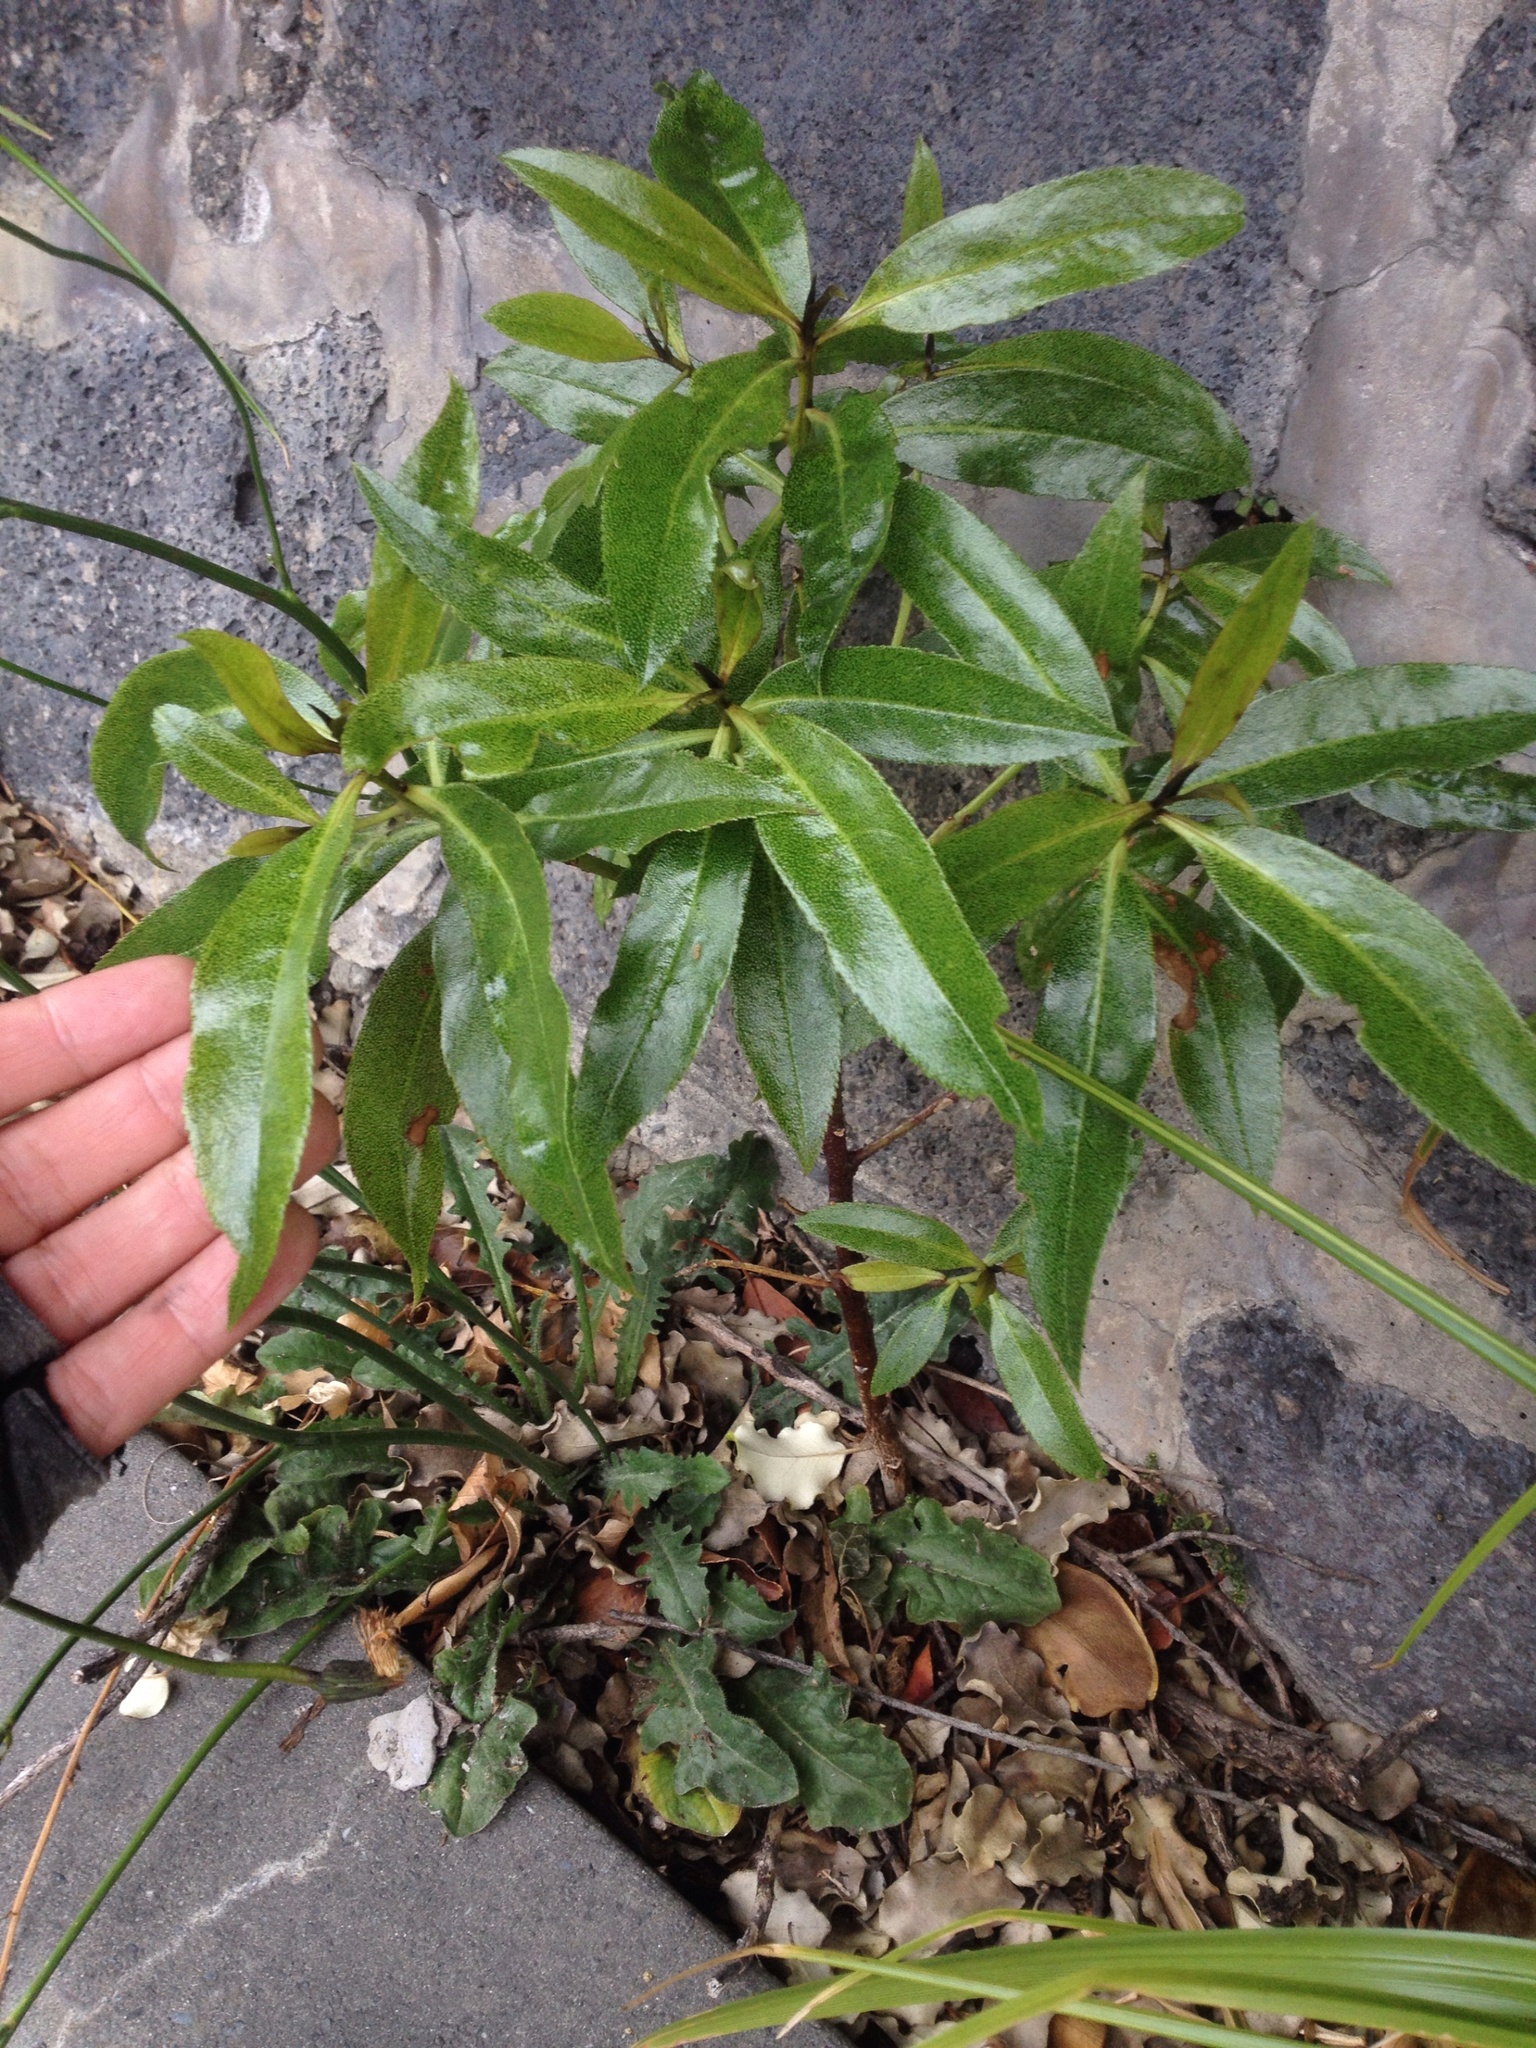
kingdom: Plantae
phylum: Tracheophyta
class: Magnoliopsida
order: Lamiales
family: Scrophulariaceae
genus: Myoporum
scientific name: Myoporum laetum
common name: Ngaio tree
